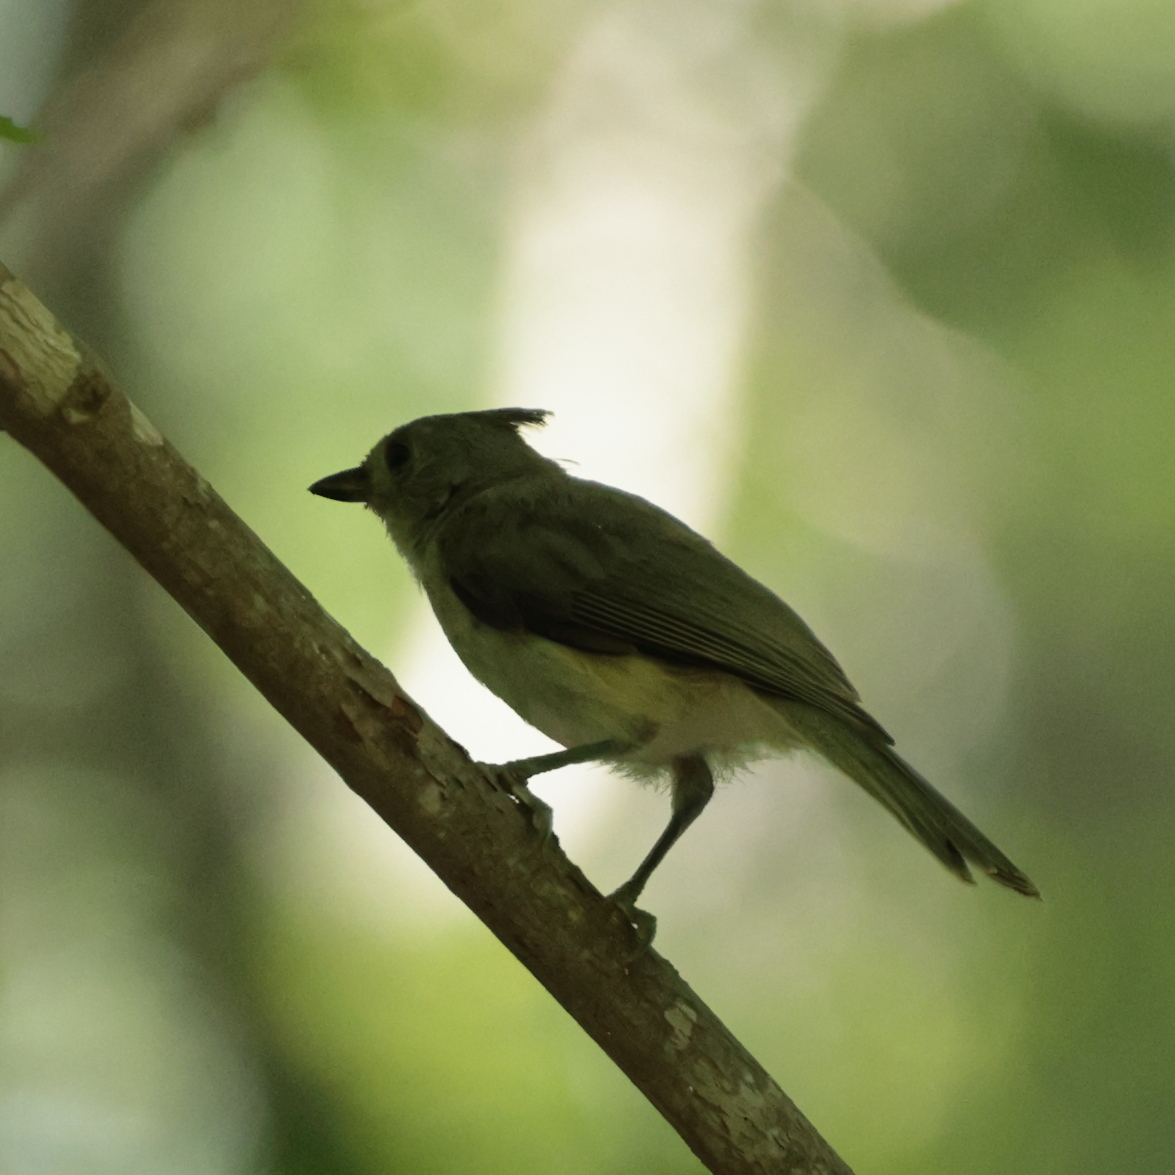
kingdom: Animalia
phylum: Chordata
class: Aves
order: Passeriformes
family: Paridae
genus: Baeolophus
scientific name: Baeolophus bicolor
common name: Tufted titmouse
